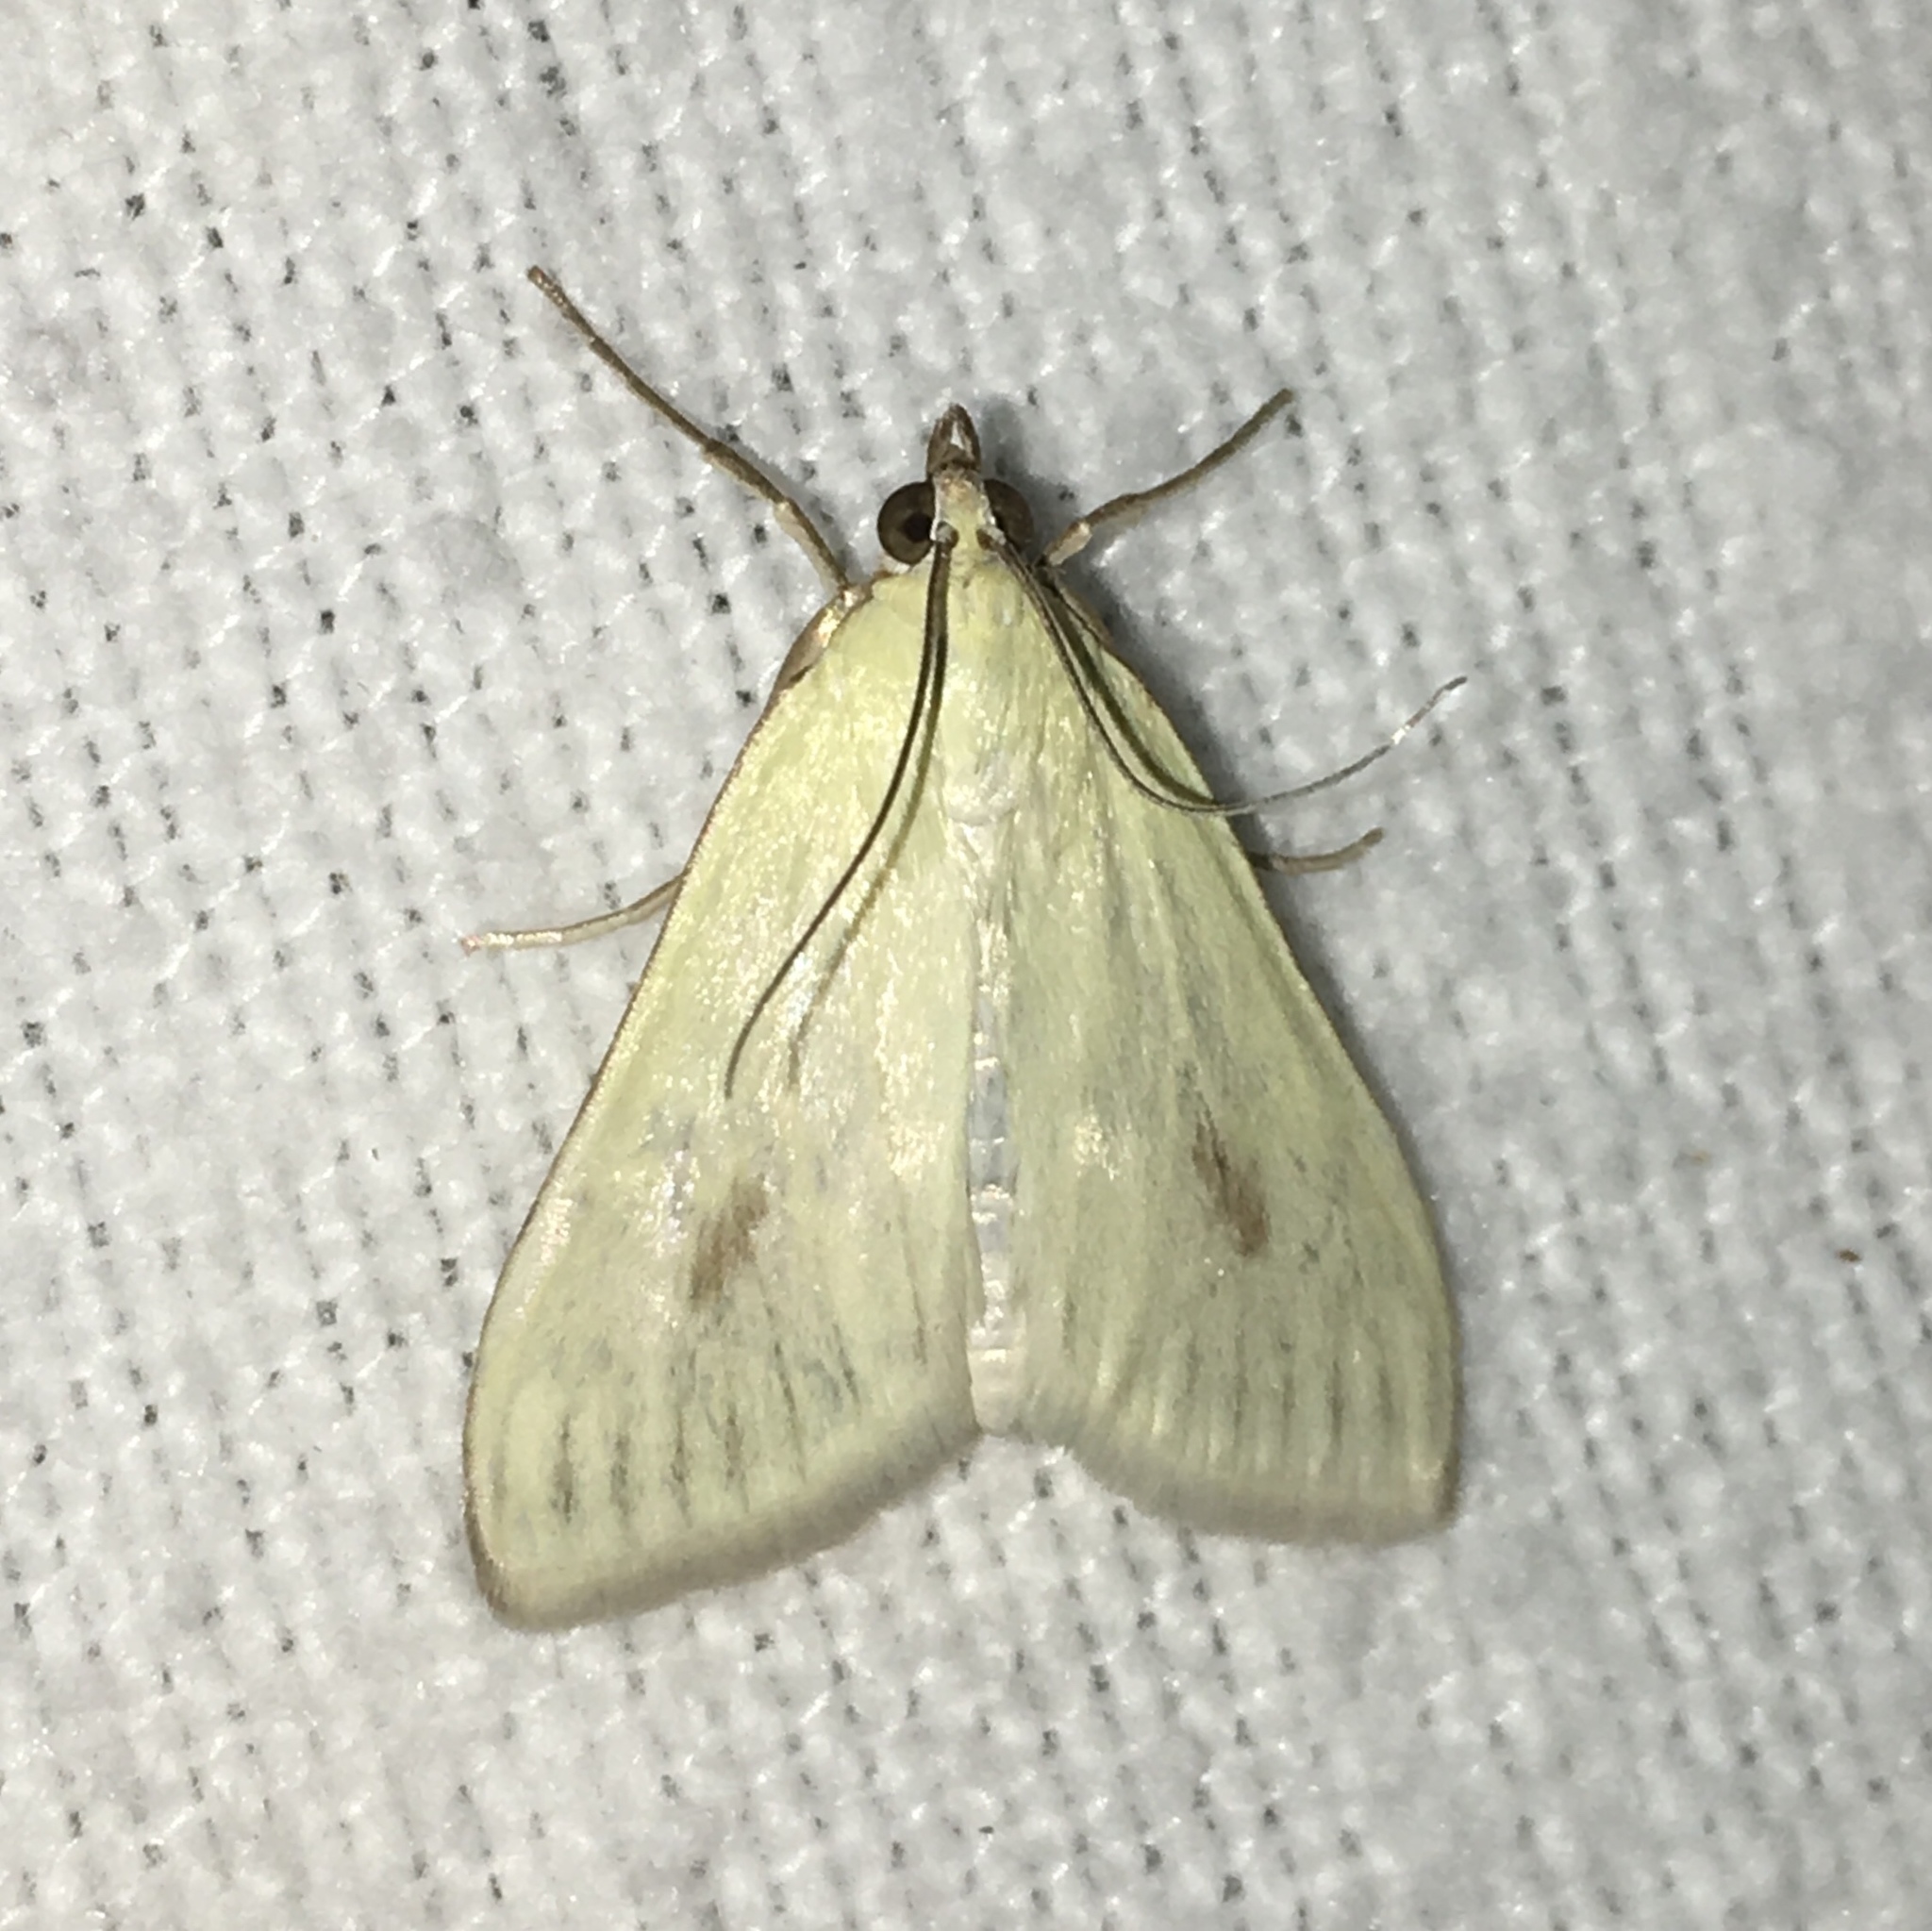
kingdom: Animalia
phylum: Arthropoda
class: Insecta
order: Lepidoptera
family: Crambidae
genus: Sitochroa
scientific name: Sitochroa palealis
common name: Greenish-yellow sitochroa moth
